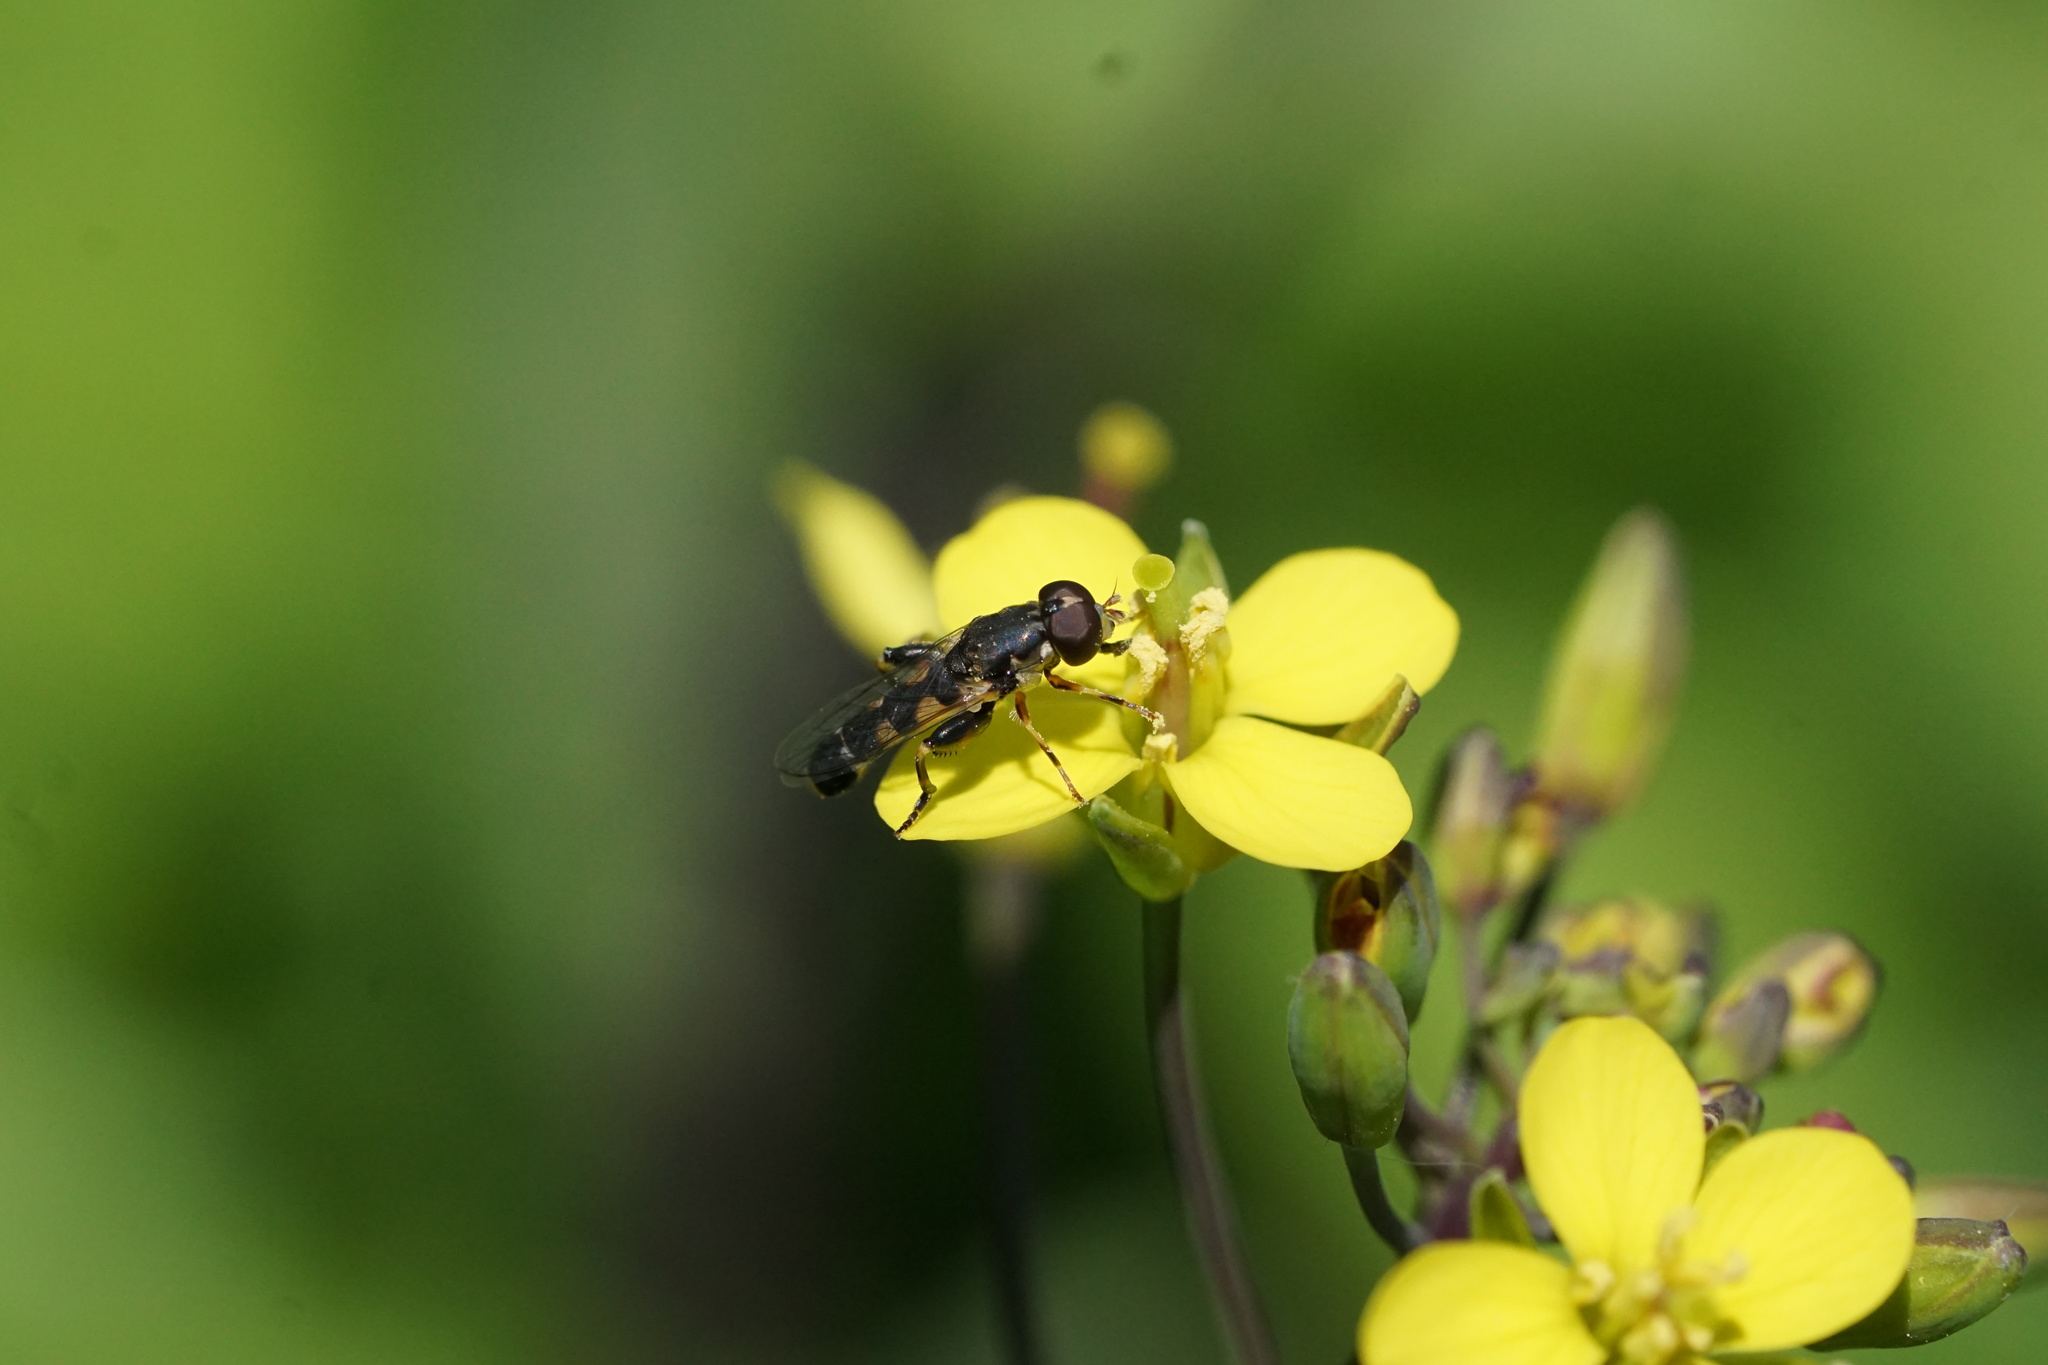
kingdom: Animalia
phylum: Arthropoda
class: Insecta
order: Diptera
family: Syrphidae
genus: Syritta
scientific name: Syritta pipiens
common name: Hover fly
